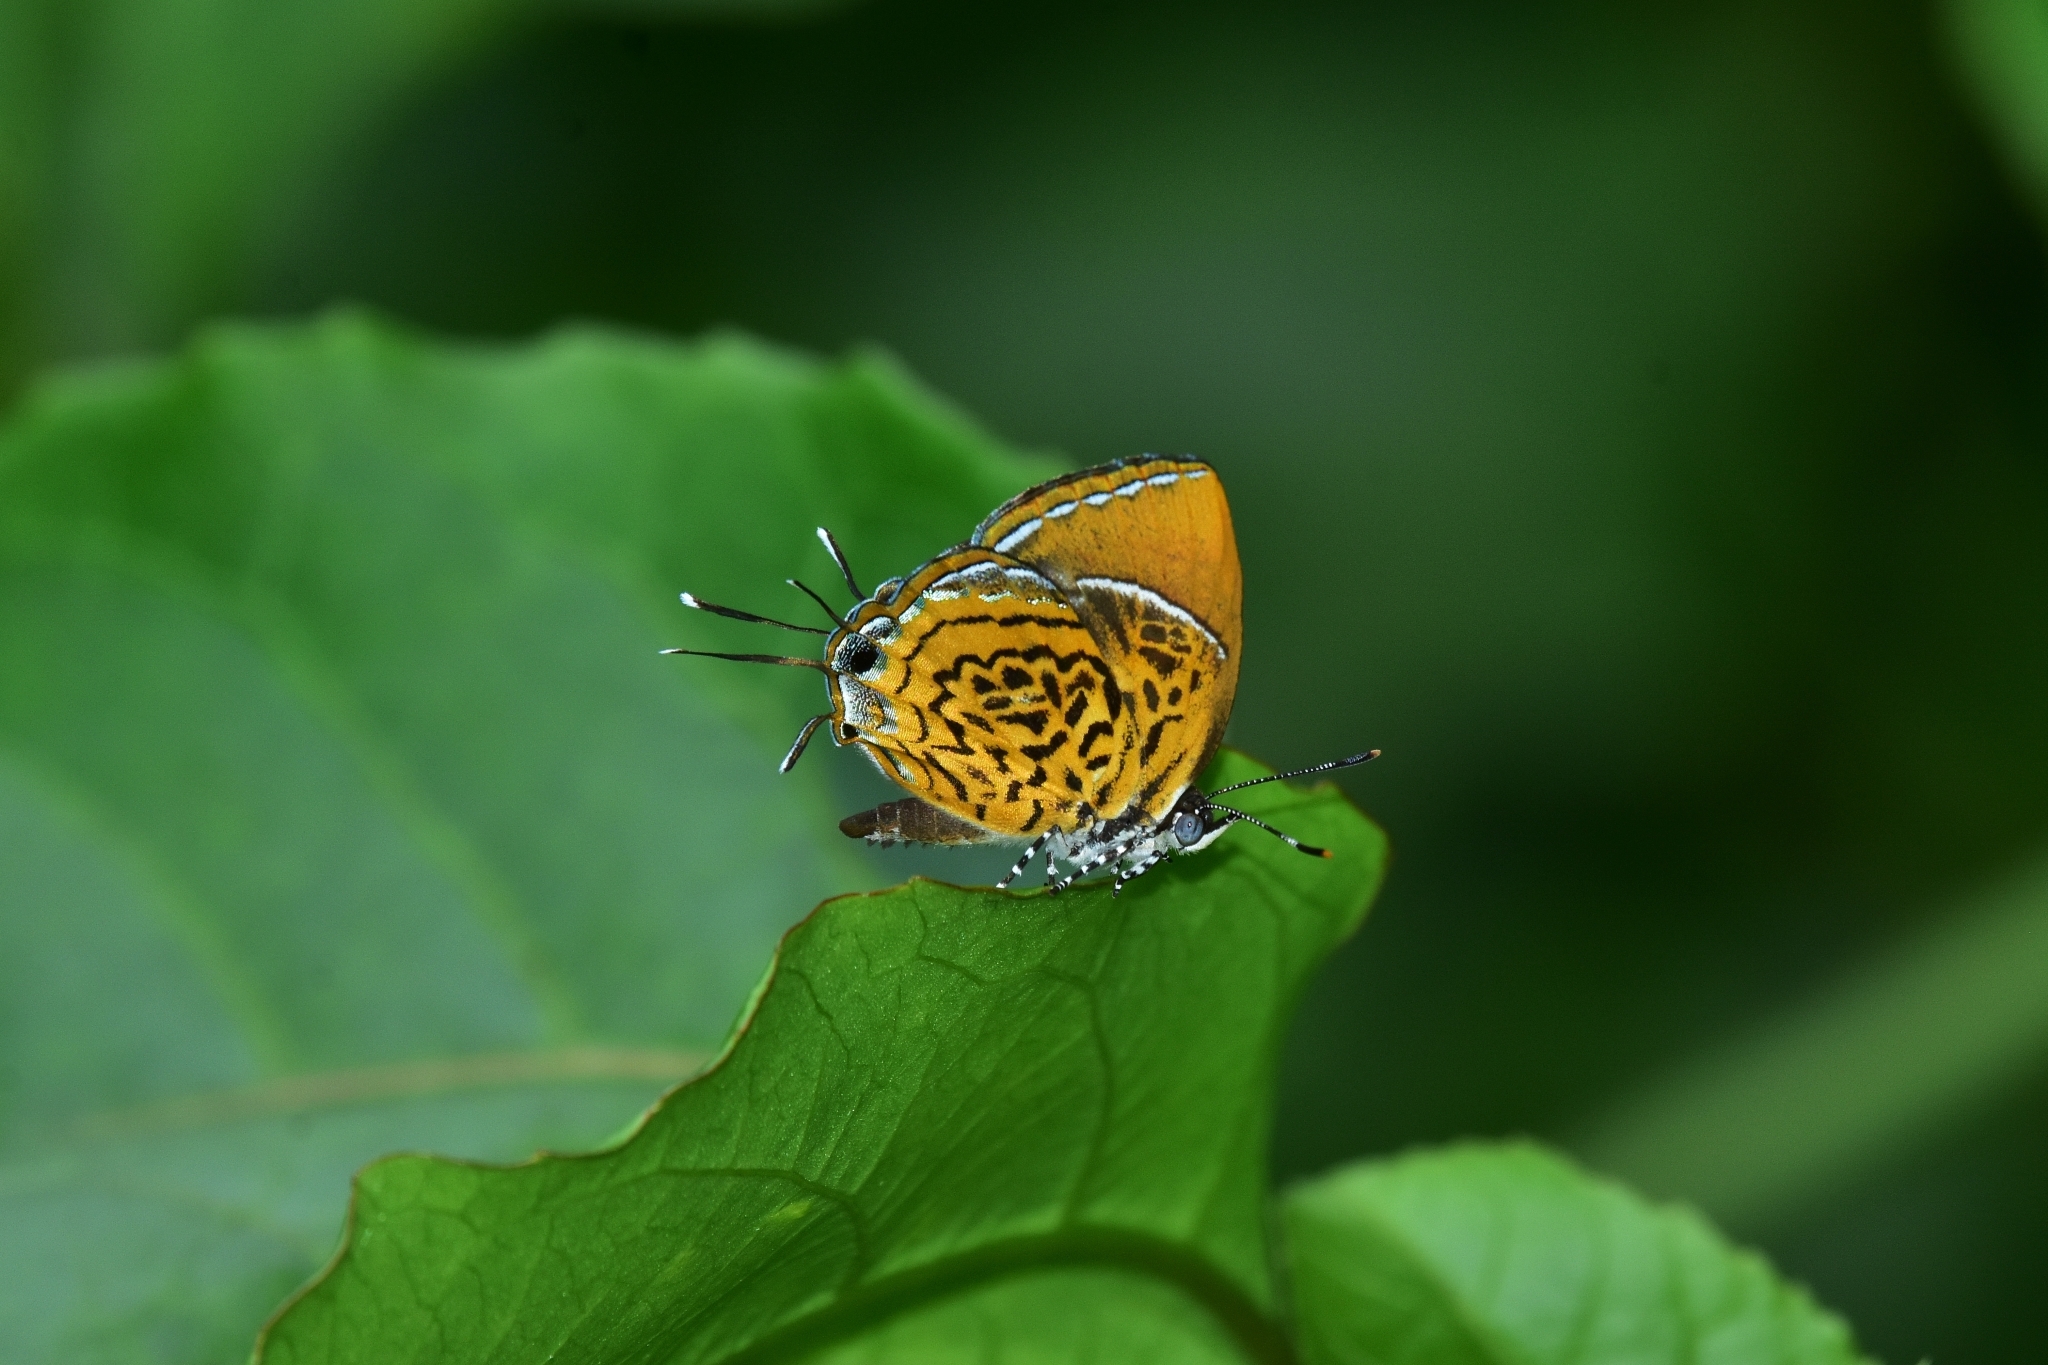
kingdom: Animalia
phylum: Arthropoda
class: Insecta
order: Lepidoptera
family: Lycaenidae
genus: Rathinda
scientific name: Rathinda amor
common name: Monkey puzzle
